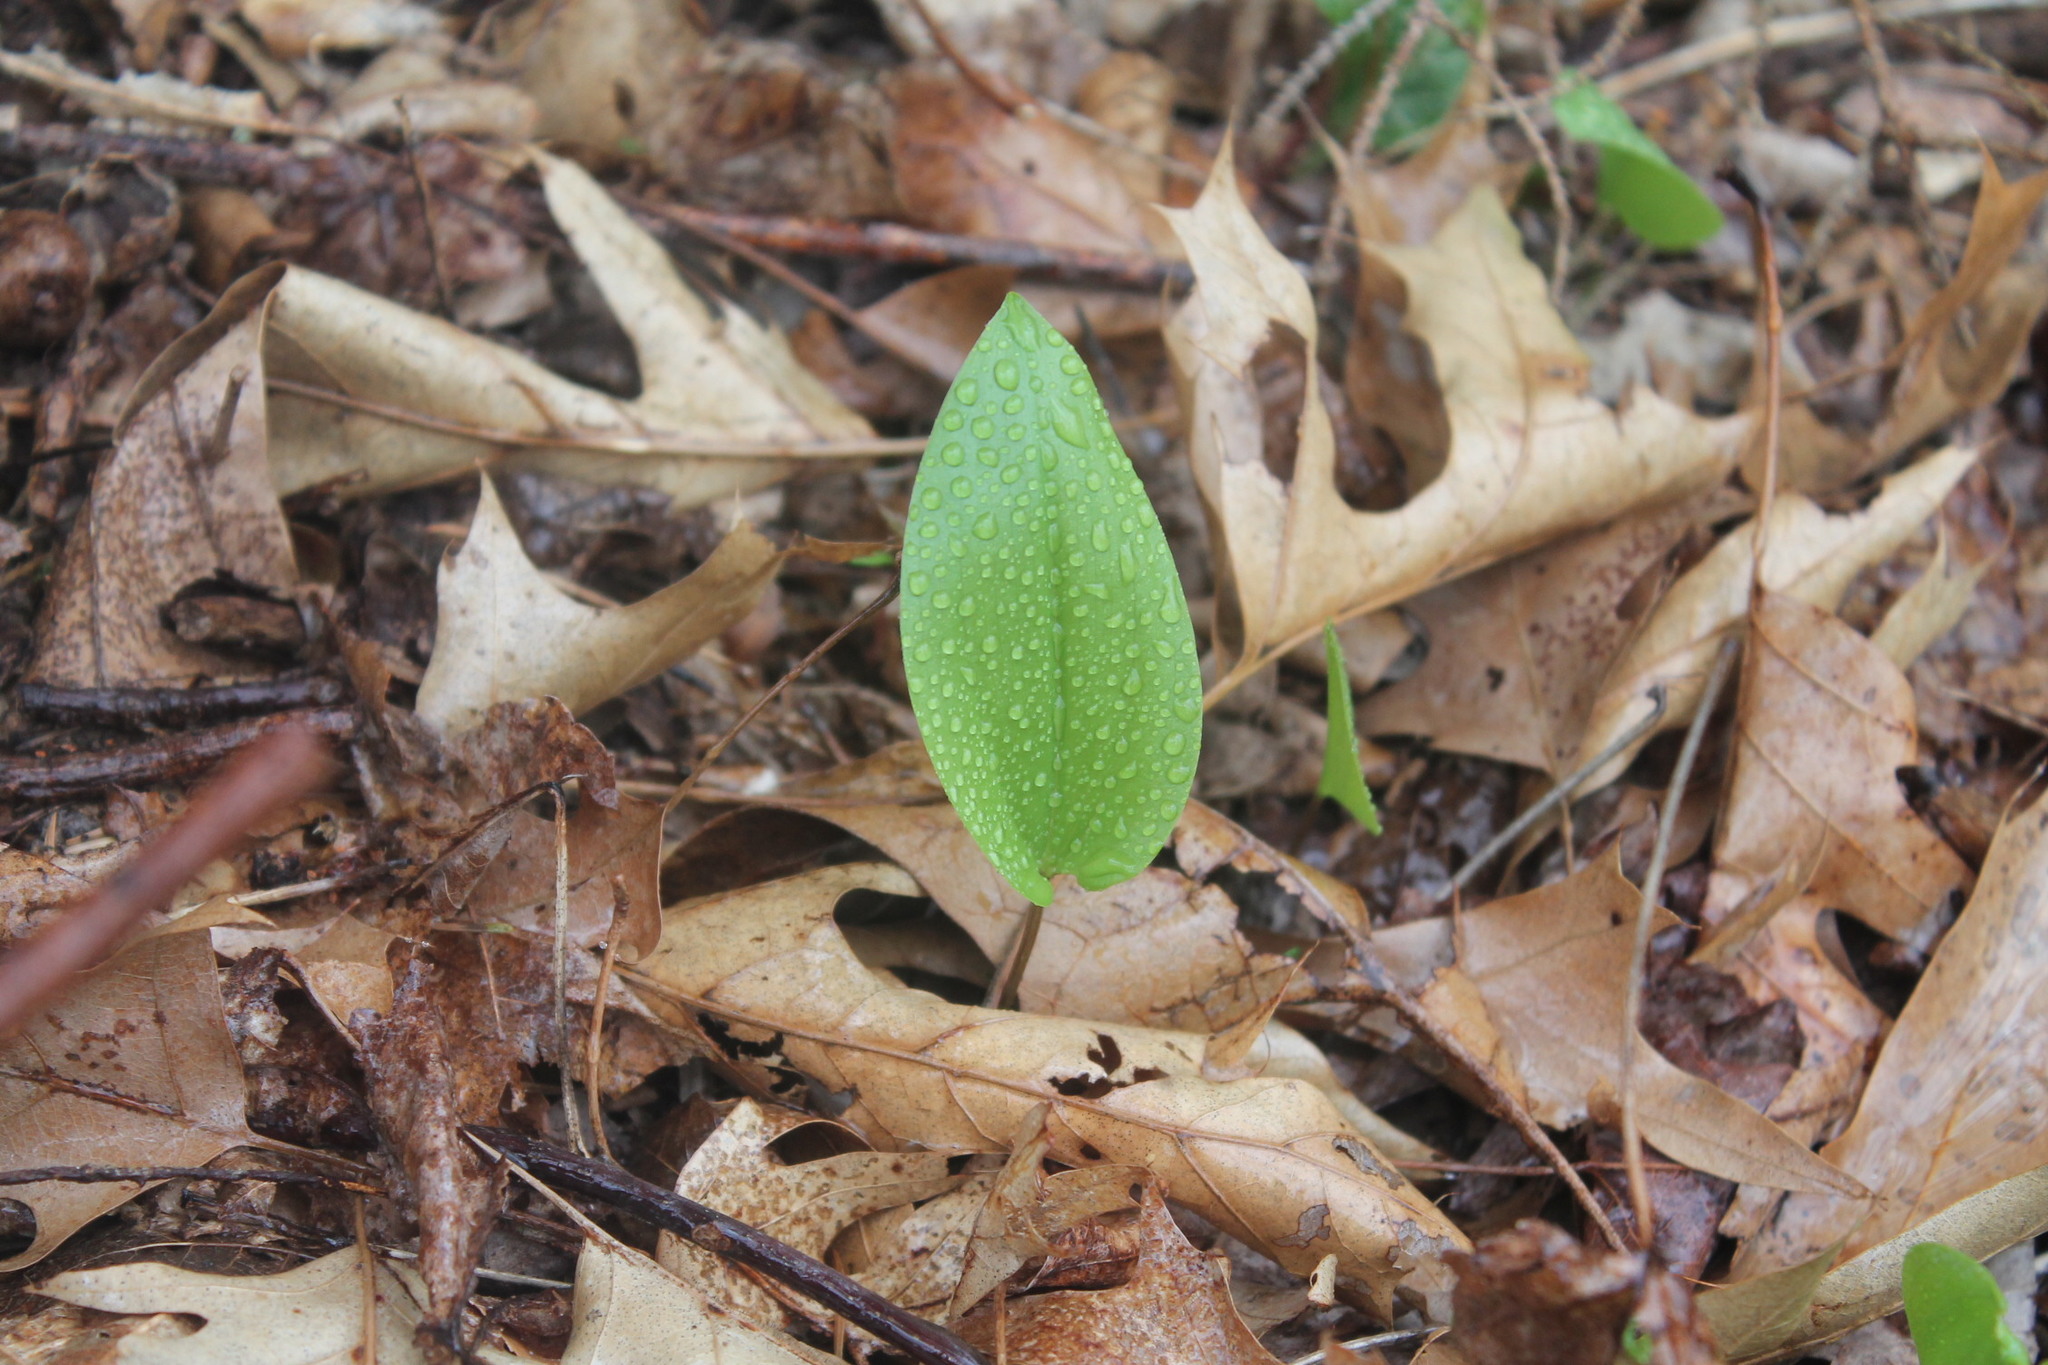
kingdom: Plantae
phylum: Tracheophyta
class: Liliopsida
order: Asparagales
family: Asparagaceae
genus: Maianthemum
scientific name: Maianthemum canadense
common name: False lily-of-the-valley
